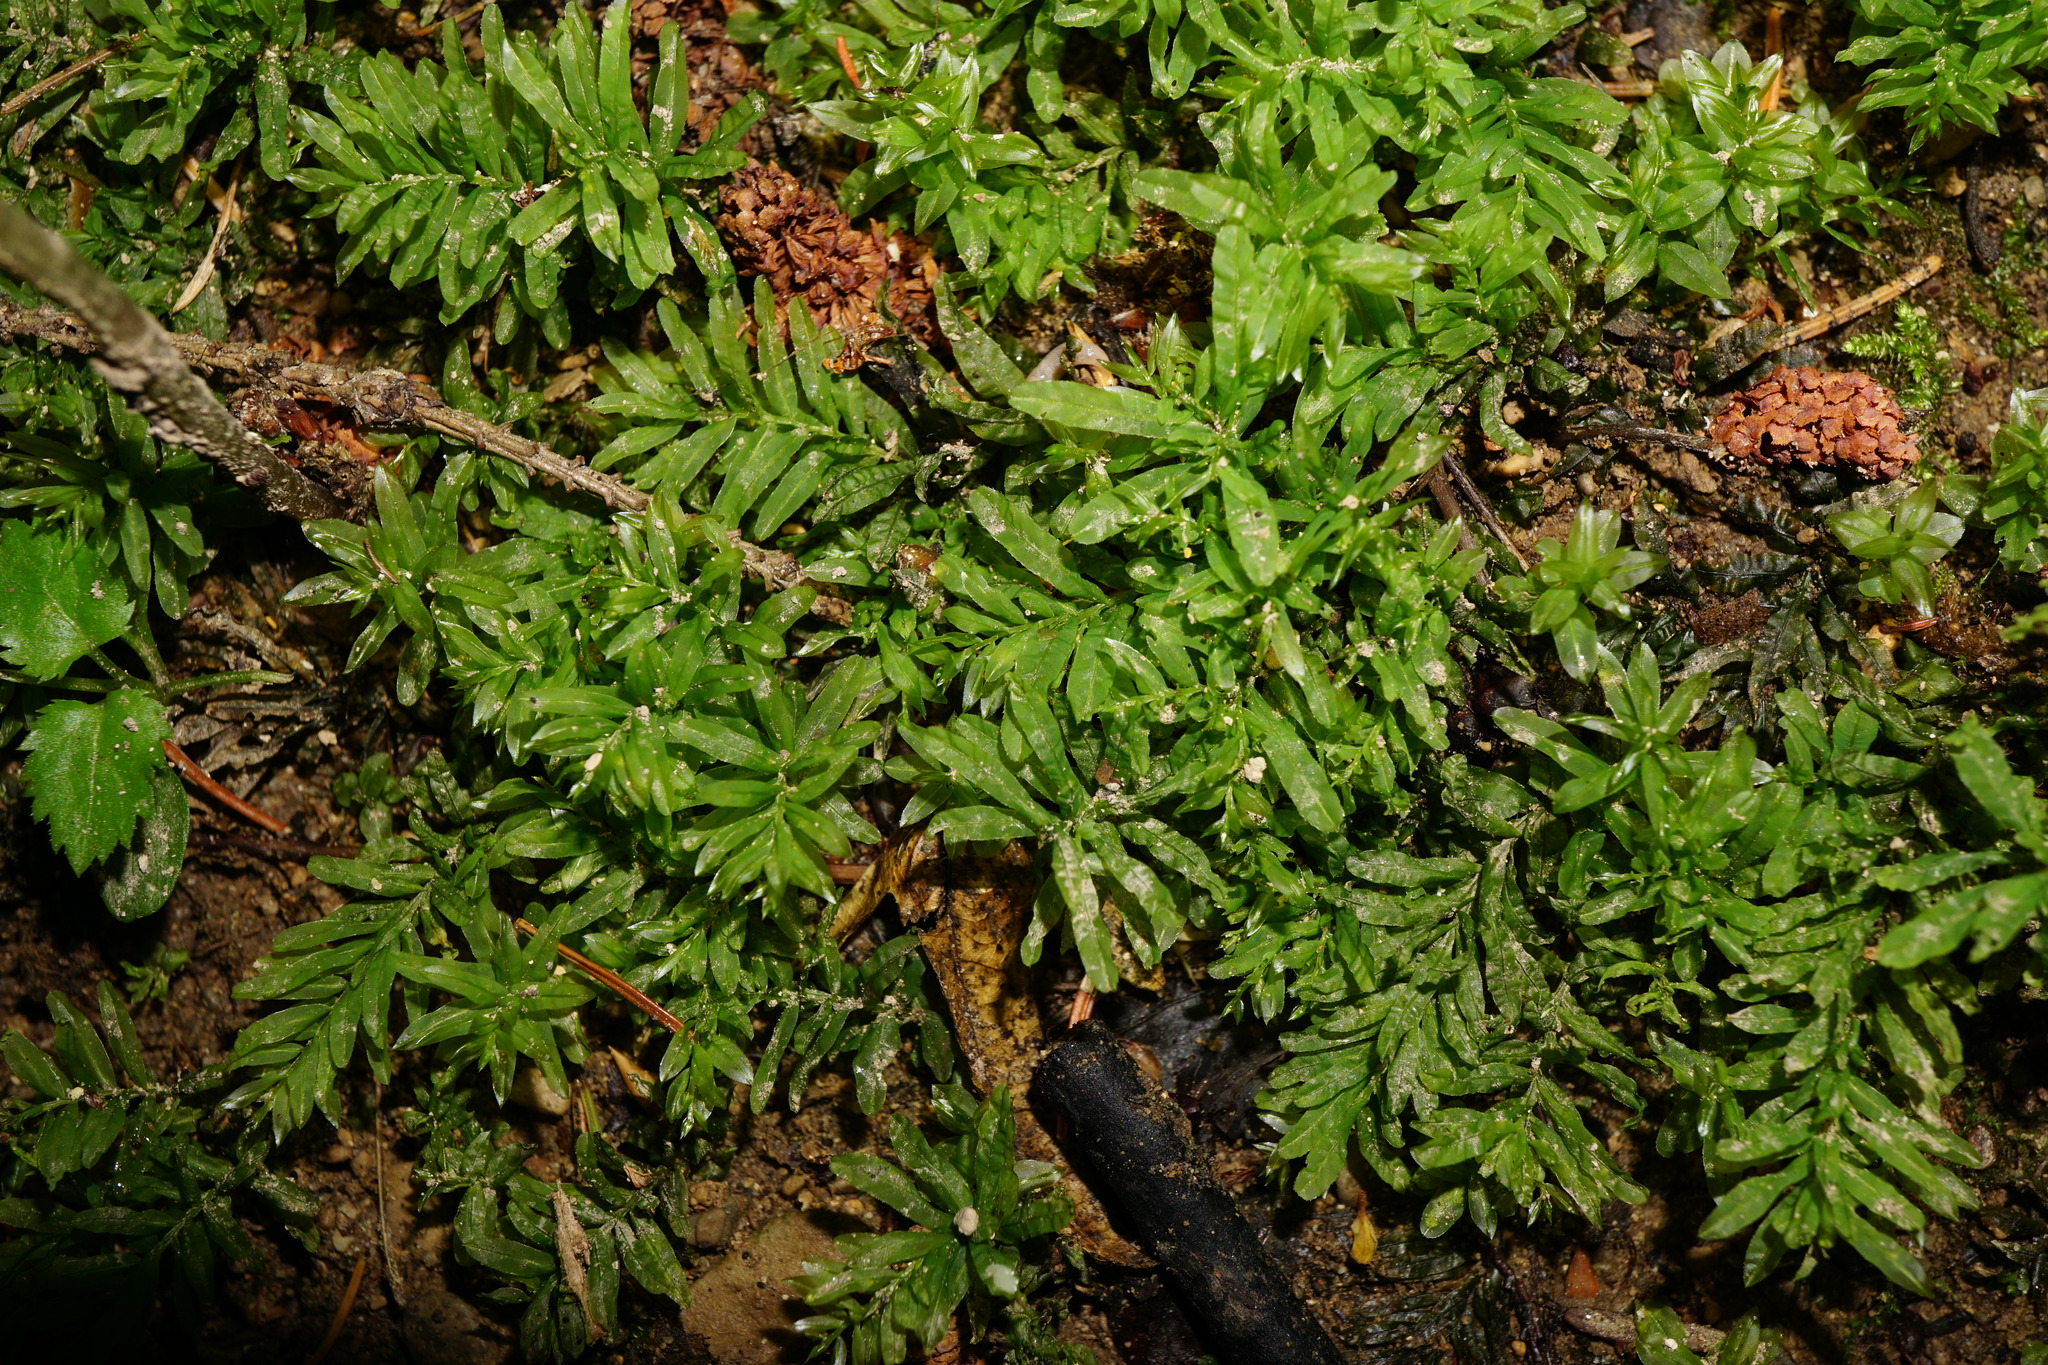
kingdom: Plantae
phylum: Bryophyta
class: Bryopsida
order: Bryales
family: Mniaceae
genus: Plagiomnium
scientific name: Plagiomnium undulatum
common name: Hart's-tongue thyme-moss
